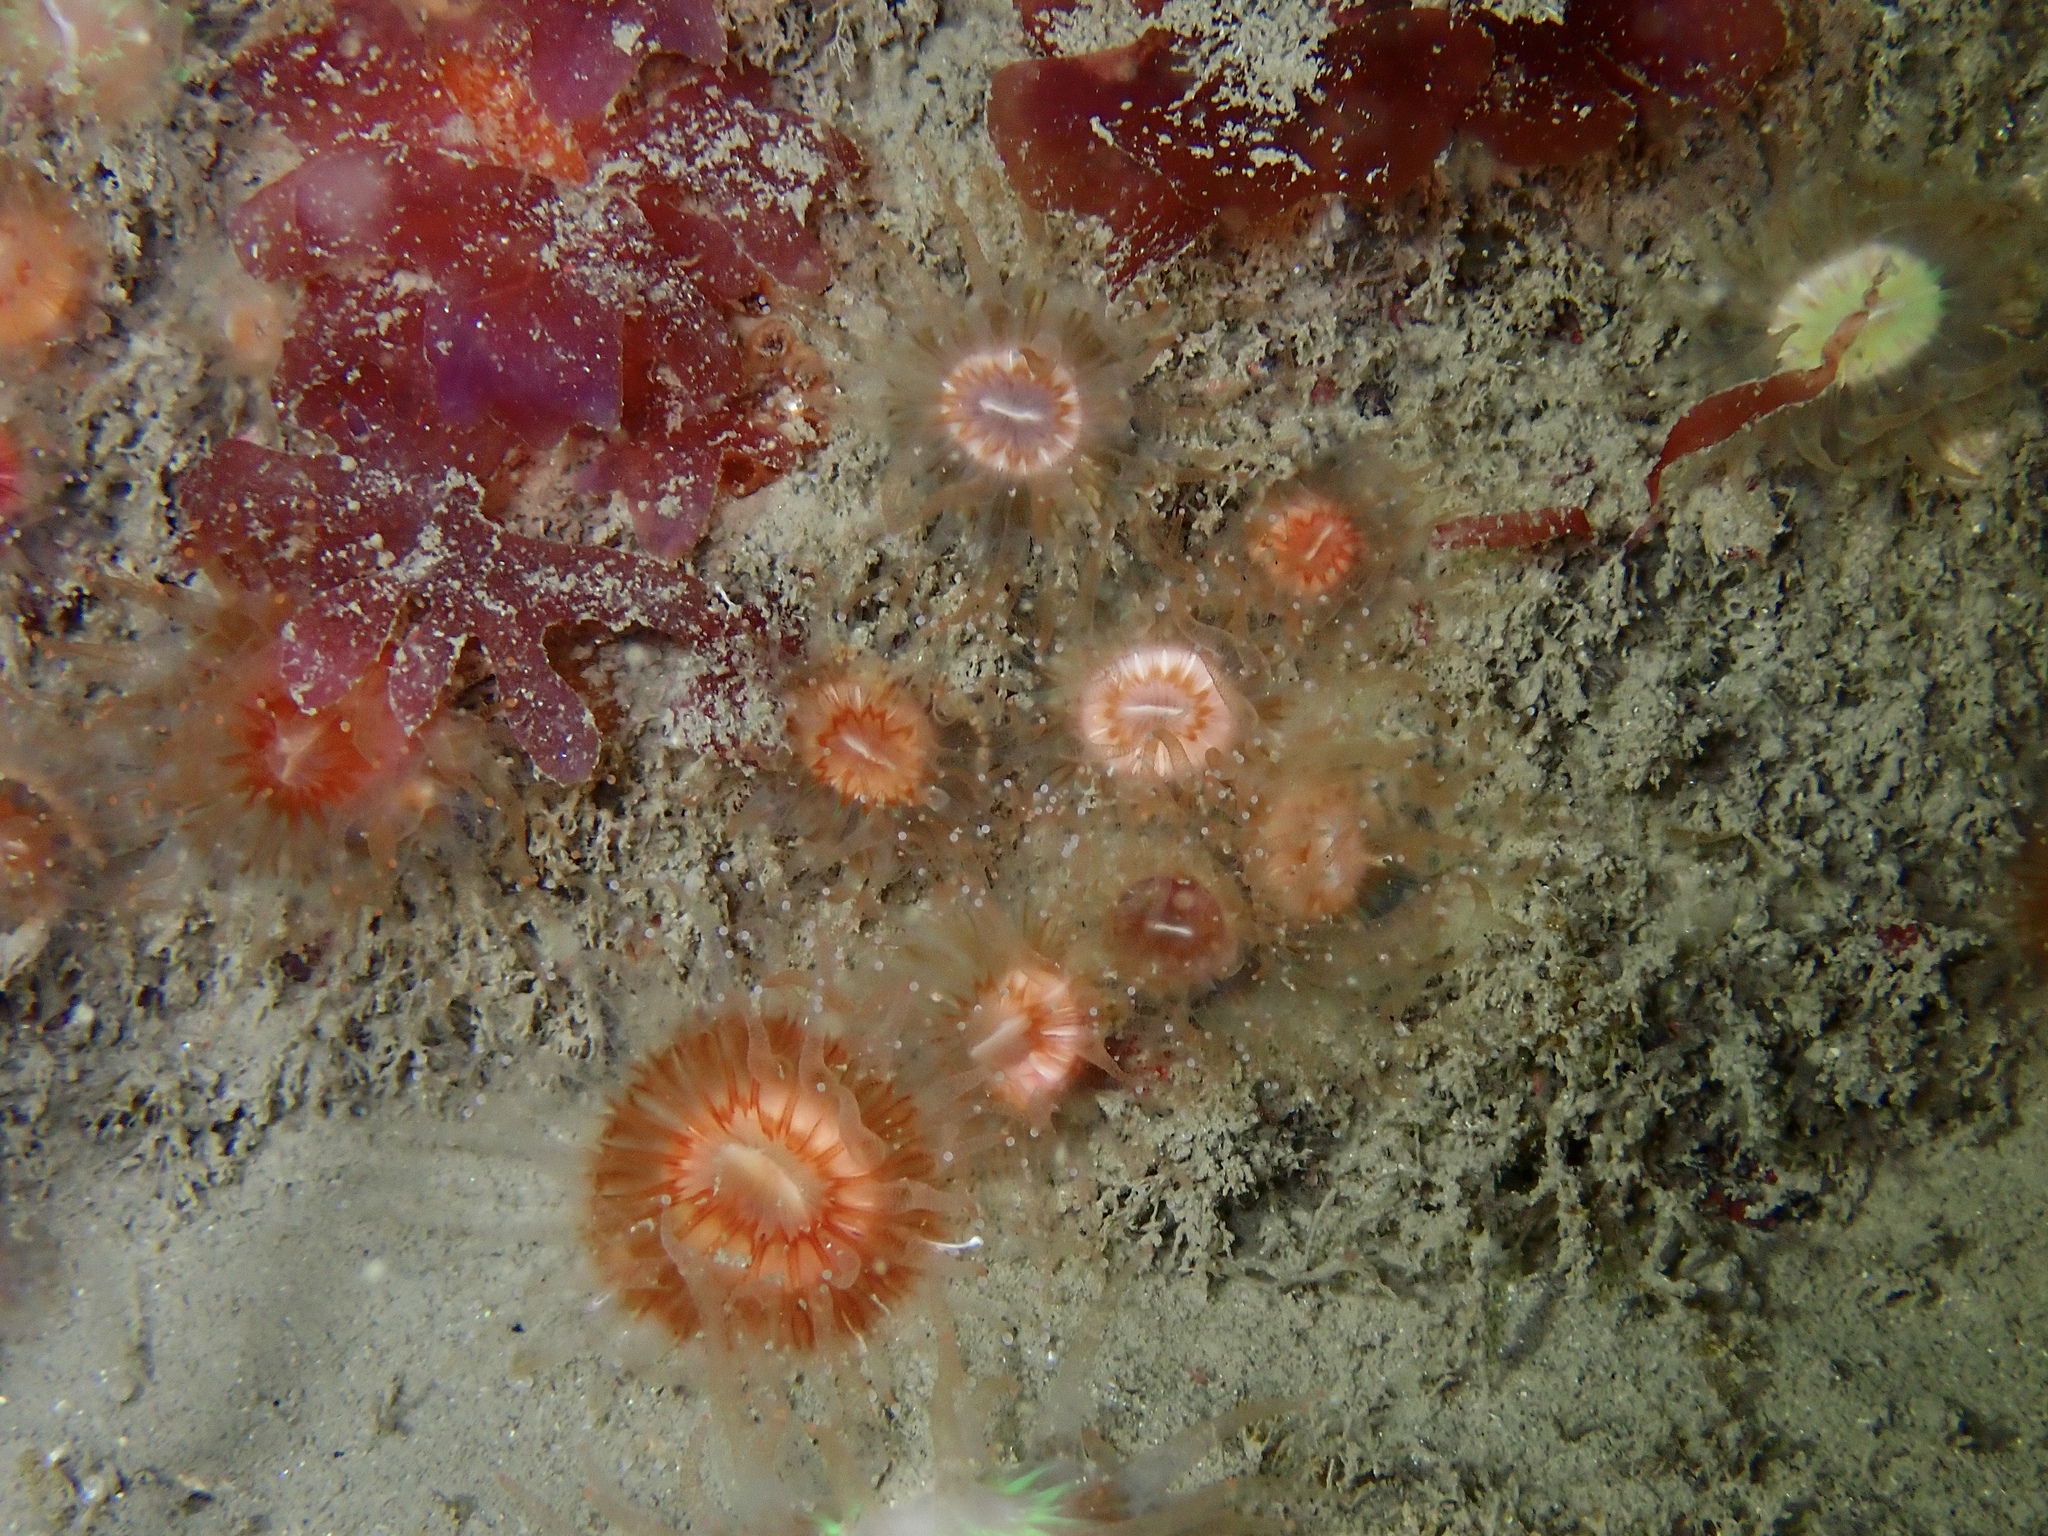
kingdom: Animalia
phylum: Cnidaria
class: Anthozoa
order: Scleractinia
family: Caryophylliidae
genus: Caryophyllia
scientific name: Caryophyllia smithii
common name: Devonshire cup coral
